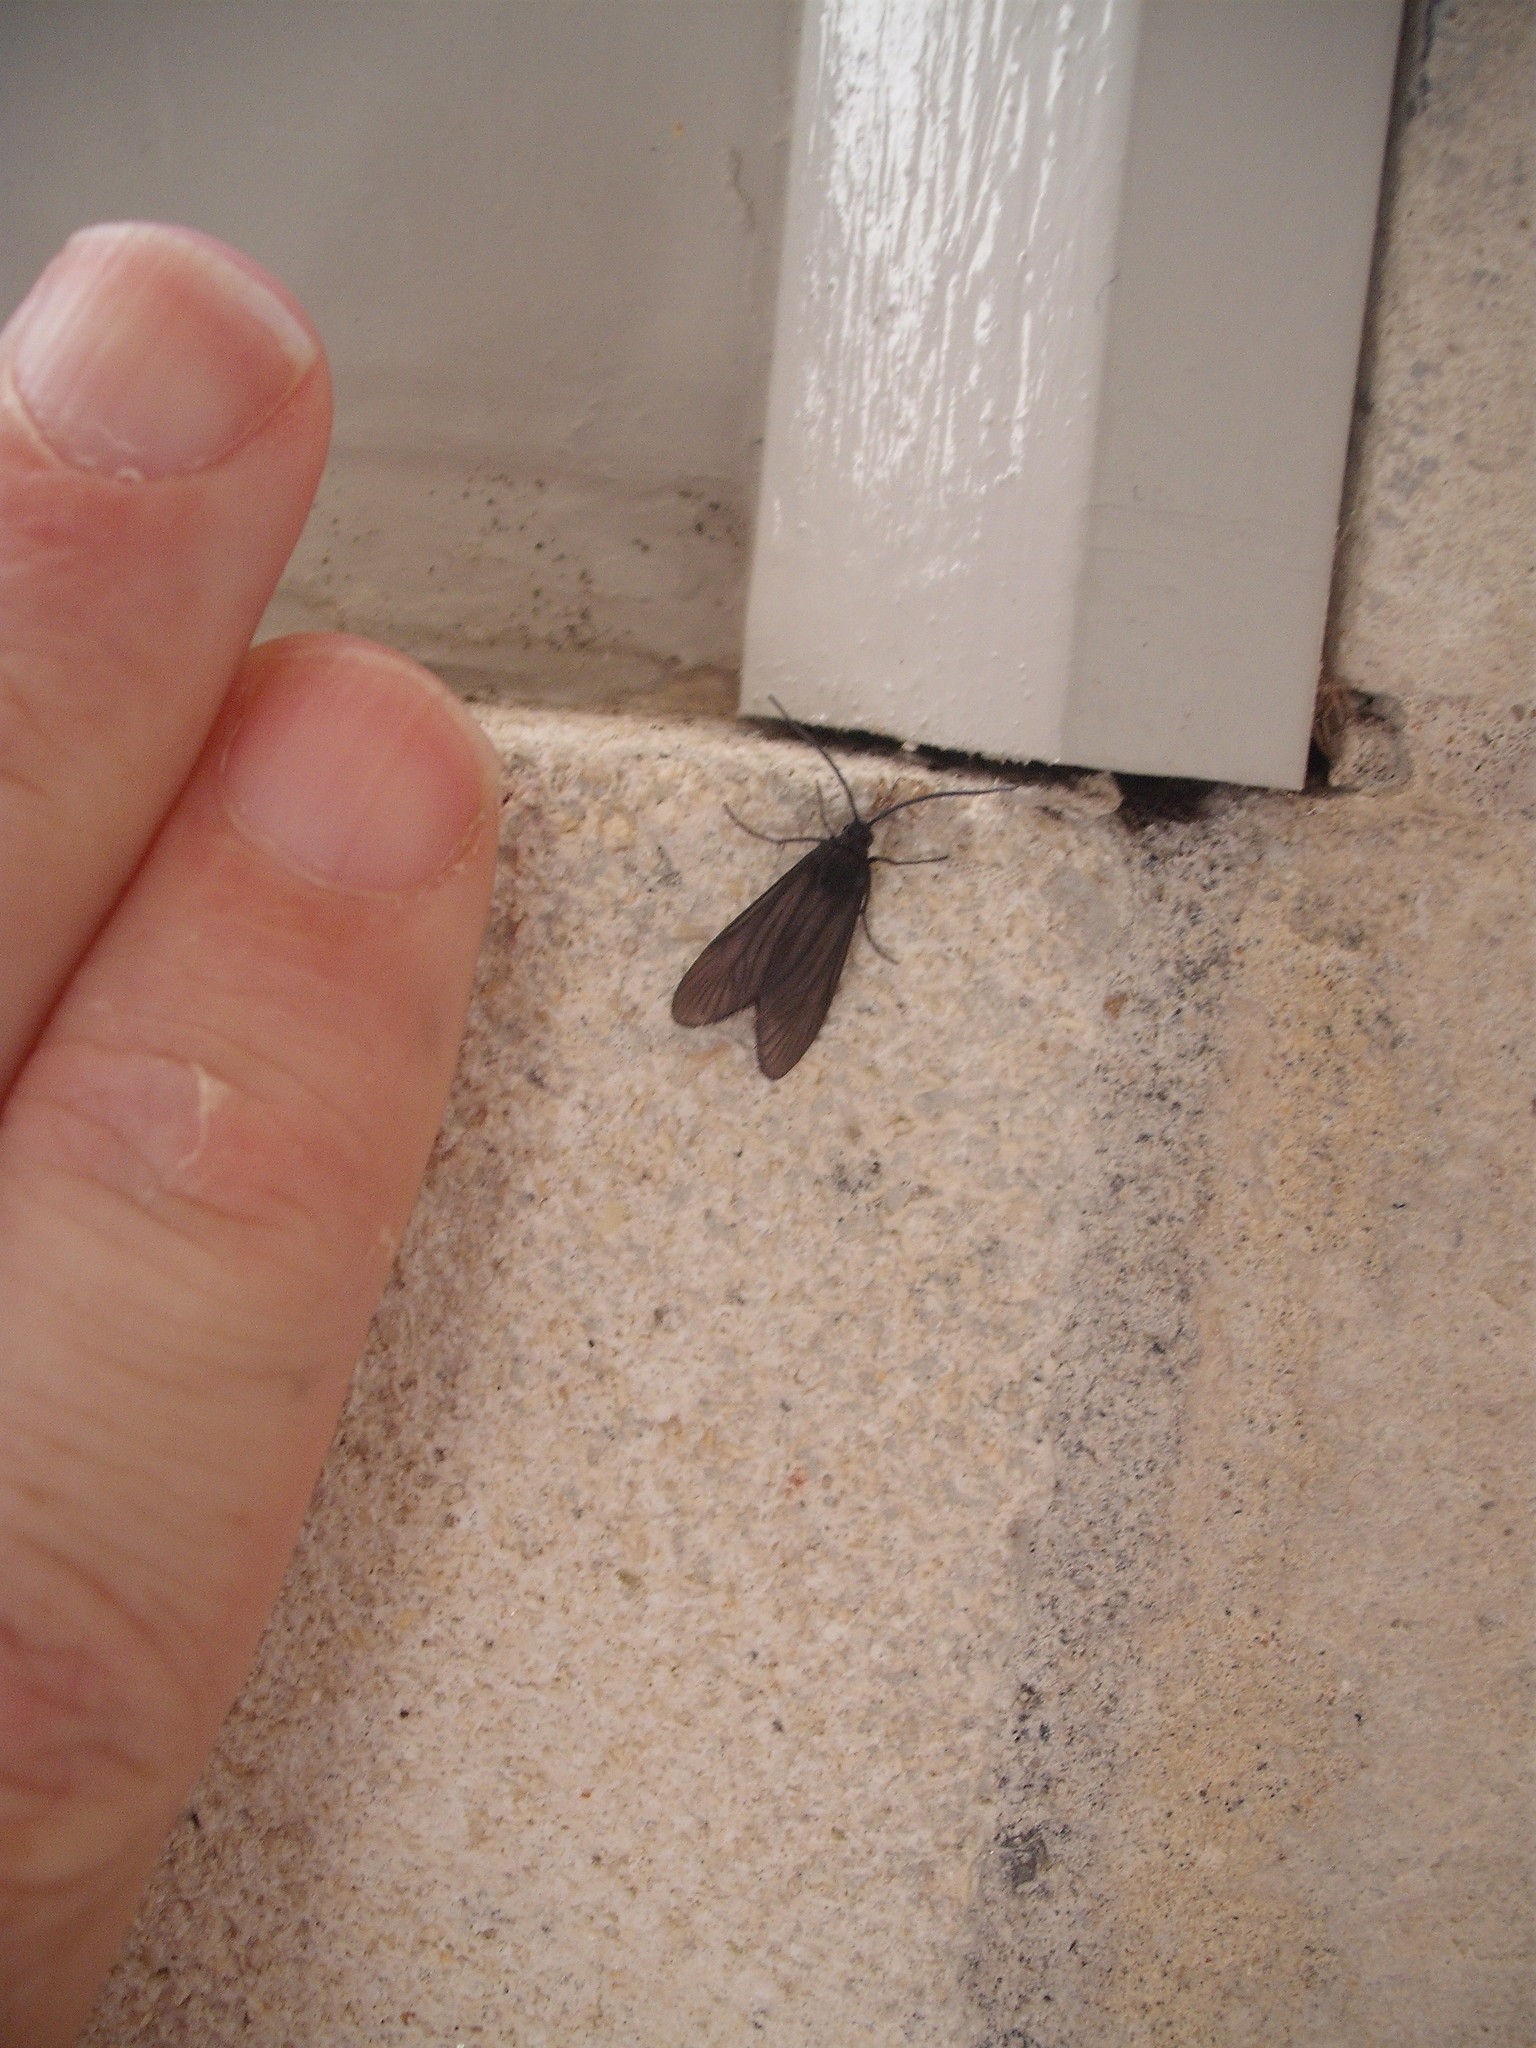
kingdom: Animalia
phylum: Arthropoda
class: Insecta
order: Lepidoptera
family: Zygaenidae
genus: Artona
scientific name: Artona martini
